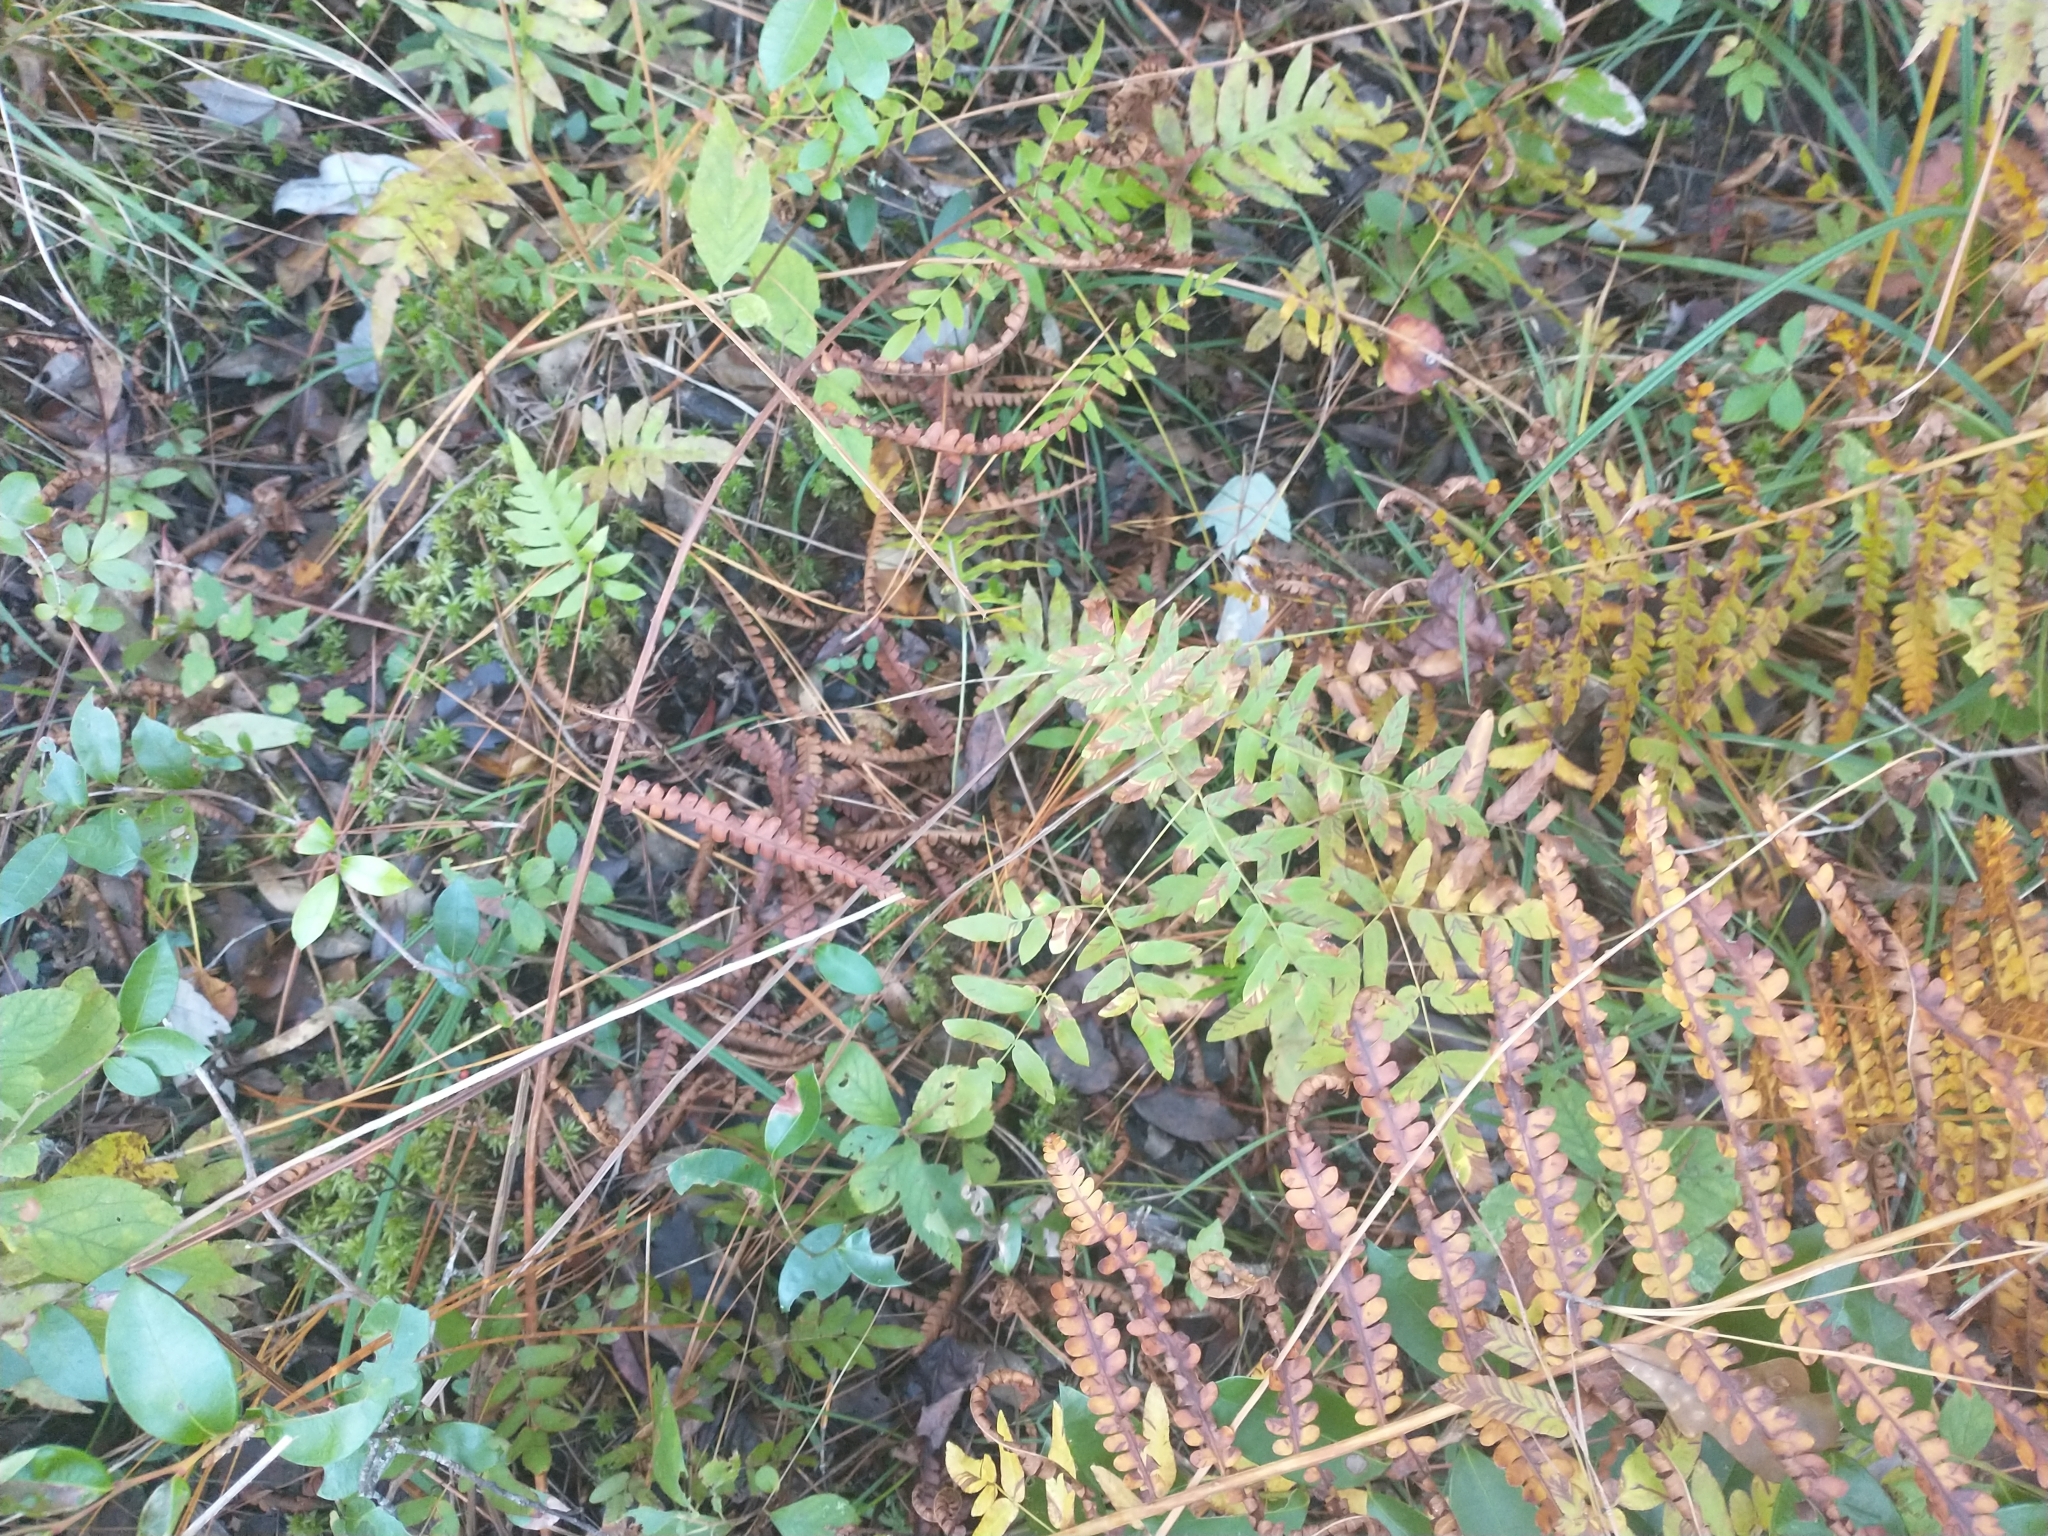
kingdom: Plantae
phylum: Tracheophyta
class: Polypodiopsida
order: Polypodiales
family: Blechnaceae
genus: Lorinseria
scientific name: Lorinseria areolata
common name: Dwarf chain fern
